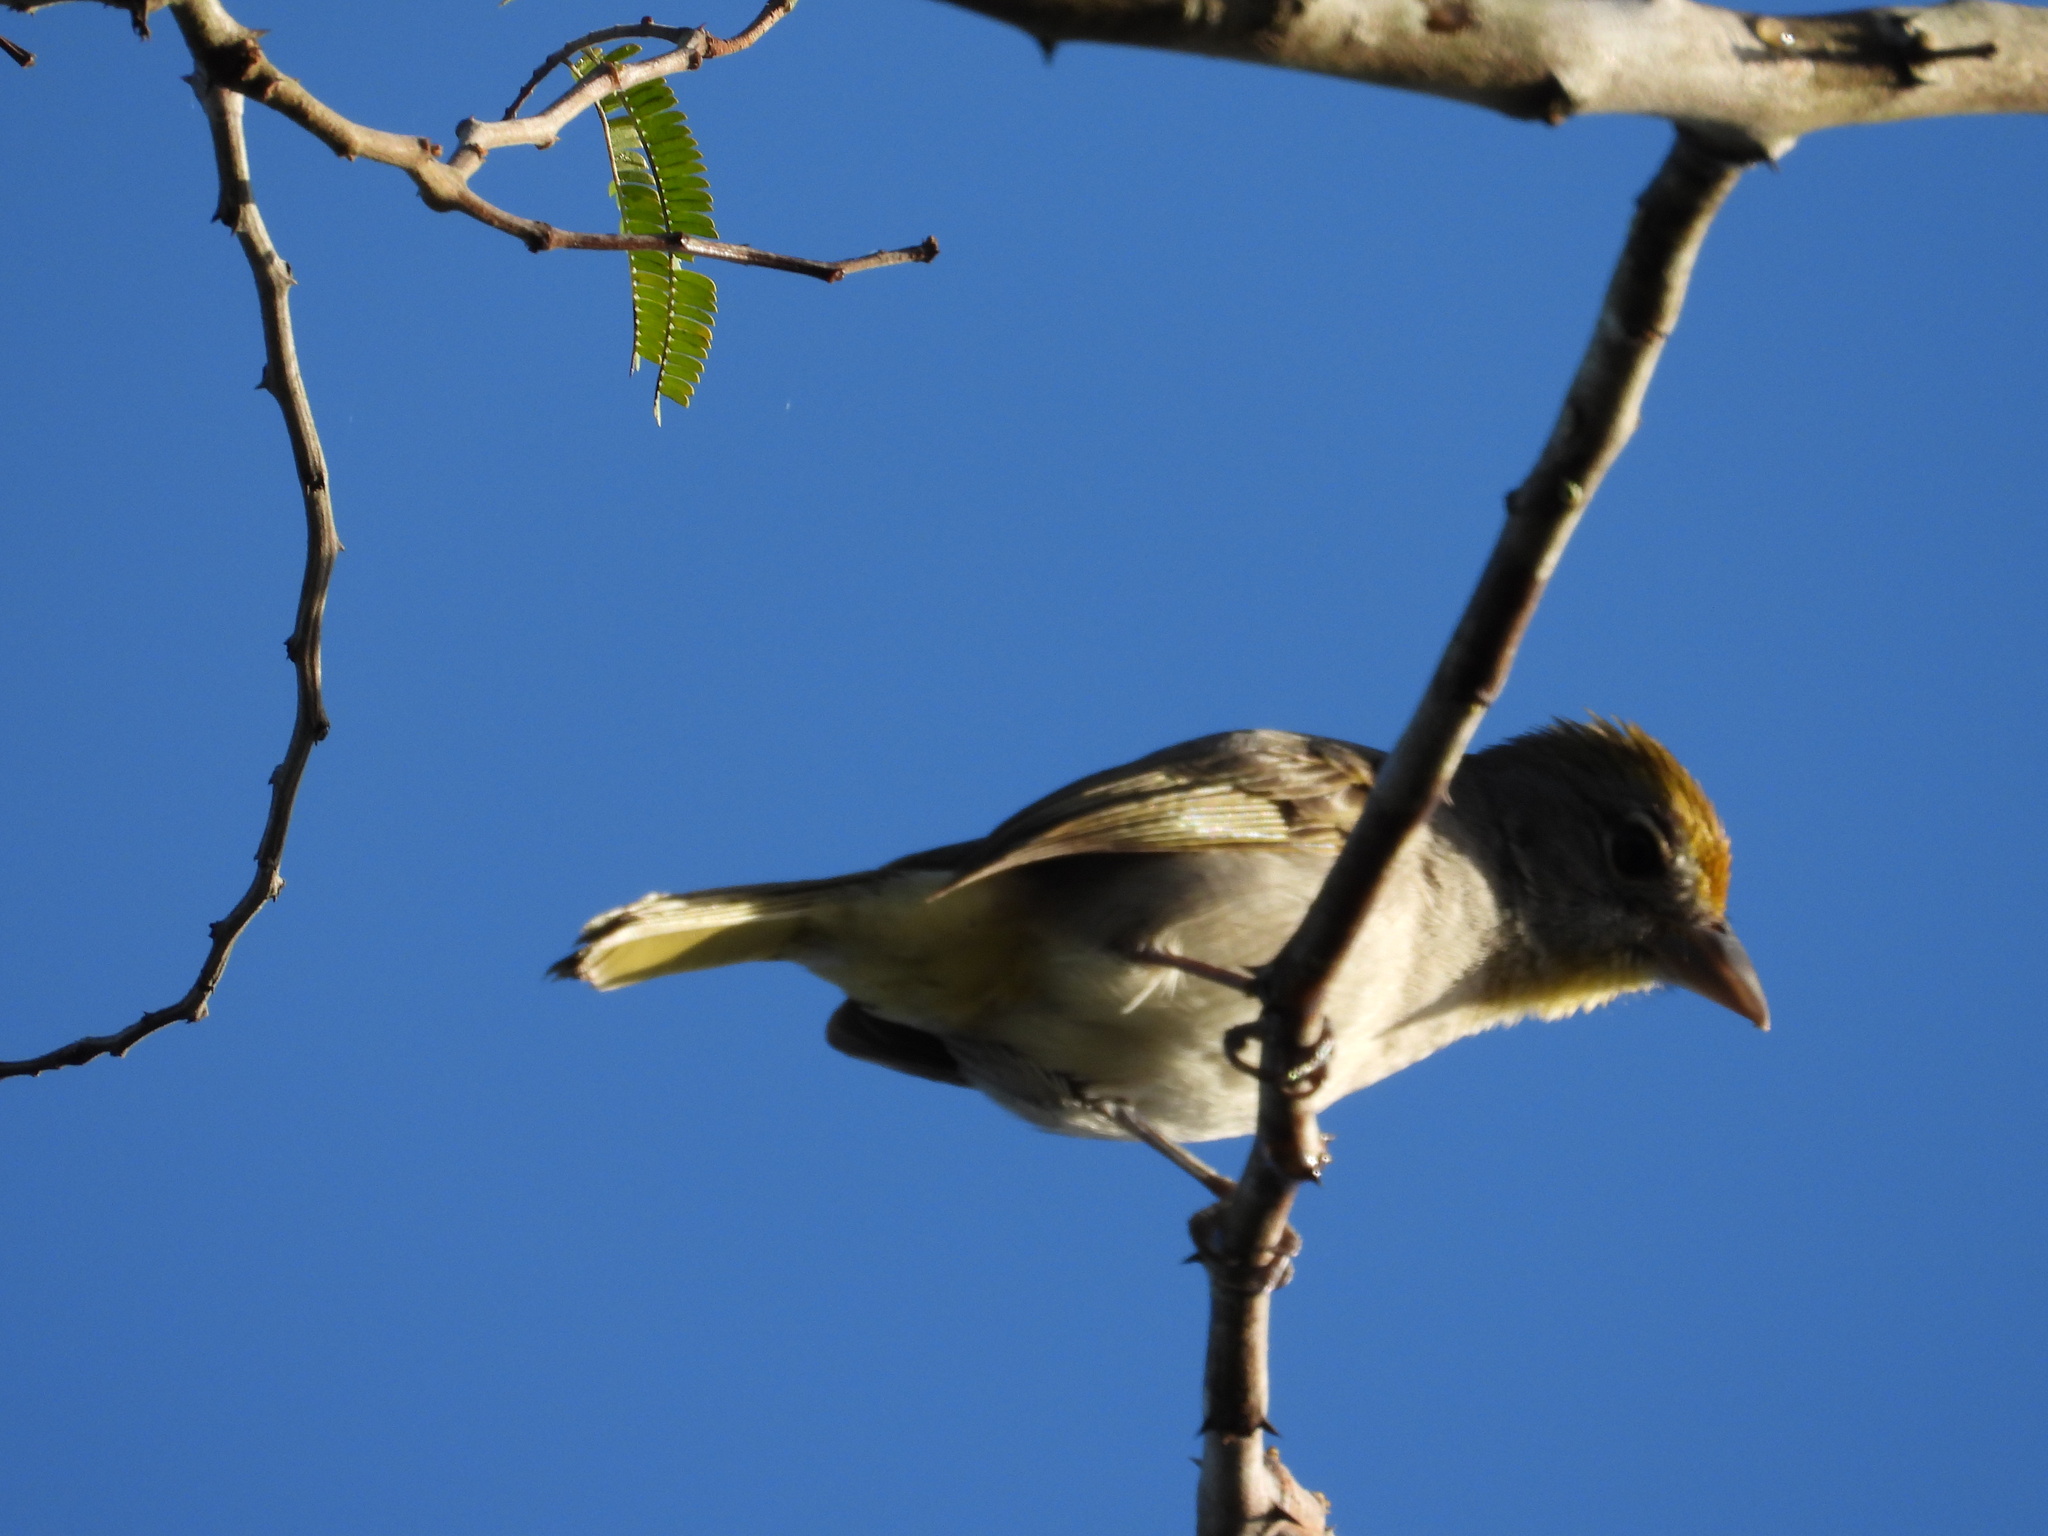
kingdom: Animalia
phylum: Chordata
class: Aves
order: Passeriformes
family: Cardinalidae
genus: Piranga
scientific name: Piranga roseogularis
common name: Rose-throated tanager
